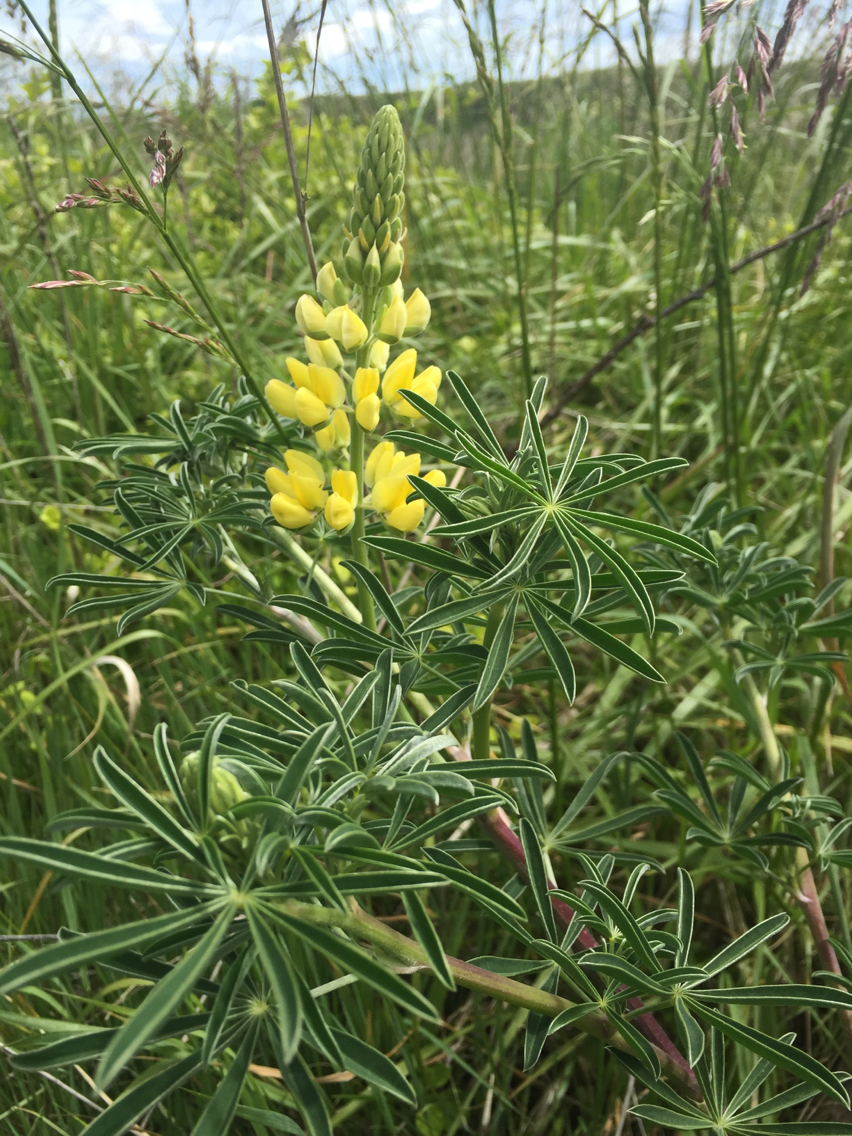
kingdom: Plantae
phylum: Tracheophyta
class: Magnoliopsida
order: Fabales
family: Fabaceae
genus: Lupinus
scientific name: Lupinus arboreus
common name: Yellow bush lupine
